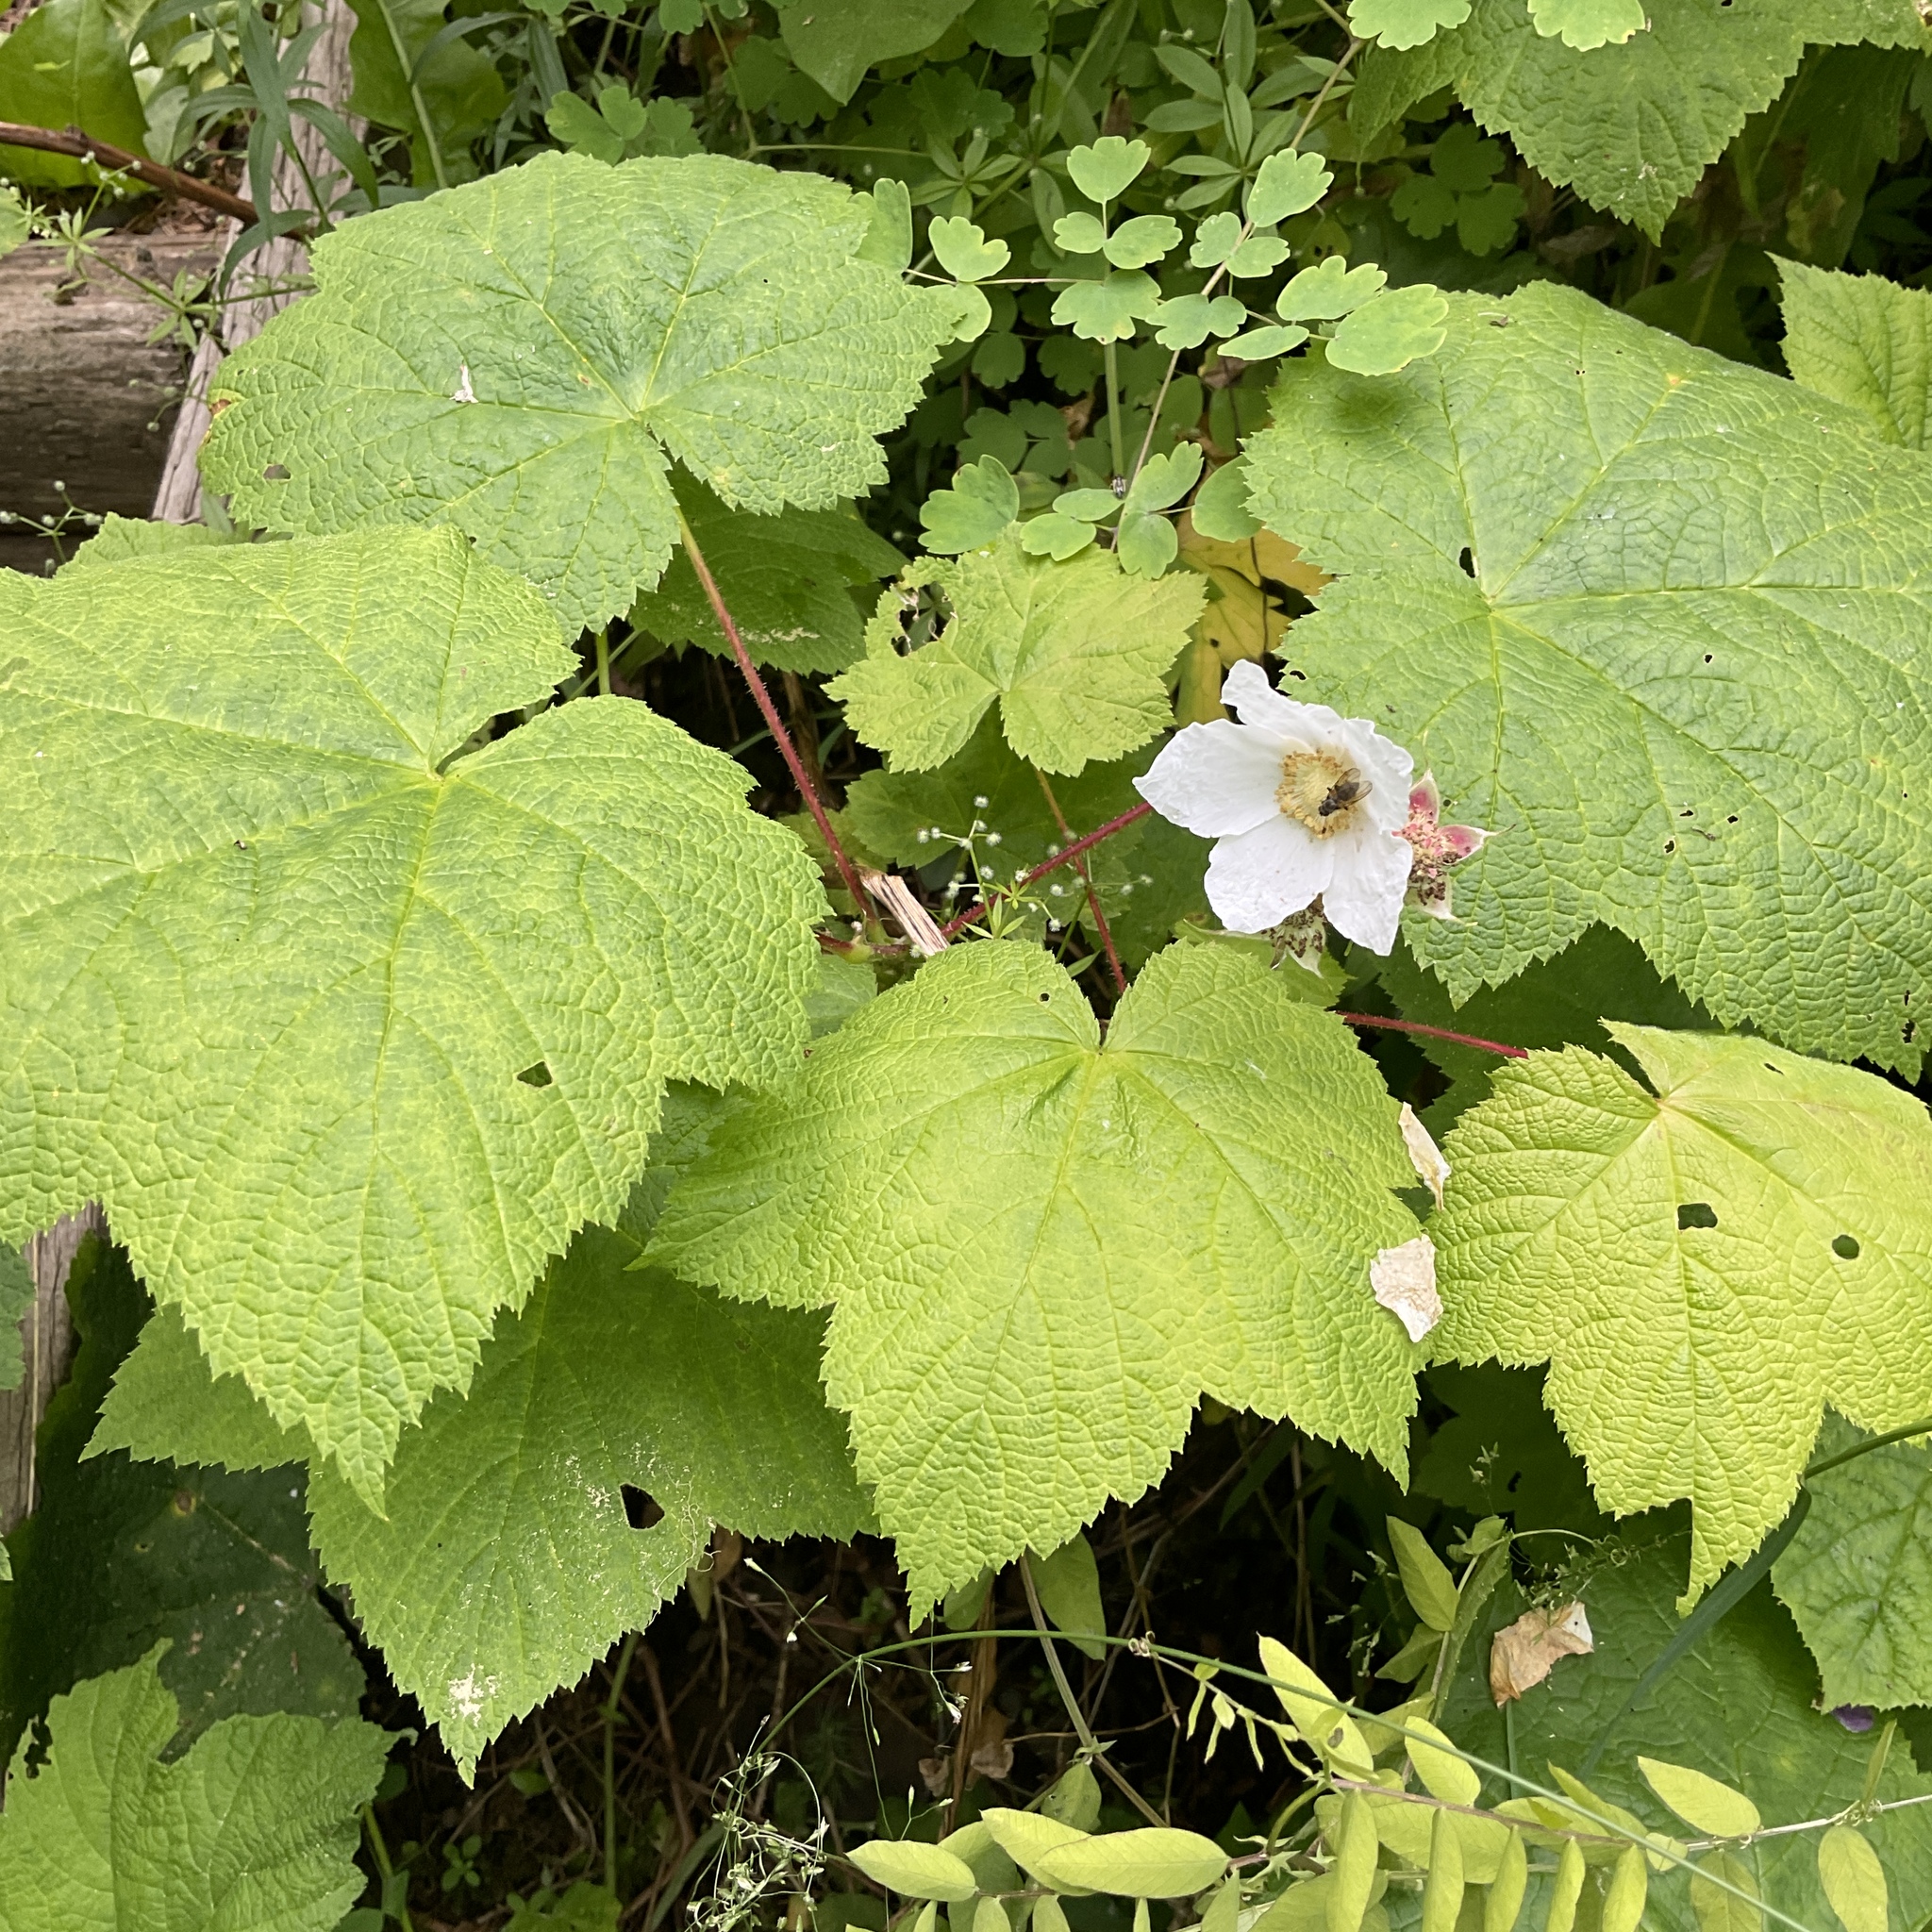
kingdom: Plantae
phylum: Tracheophyta
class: Magnoliopsida
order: Rosales
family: Rosaceae
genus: Rubus
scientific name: Rubus parviflorus
